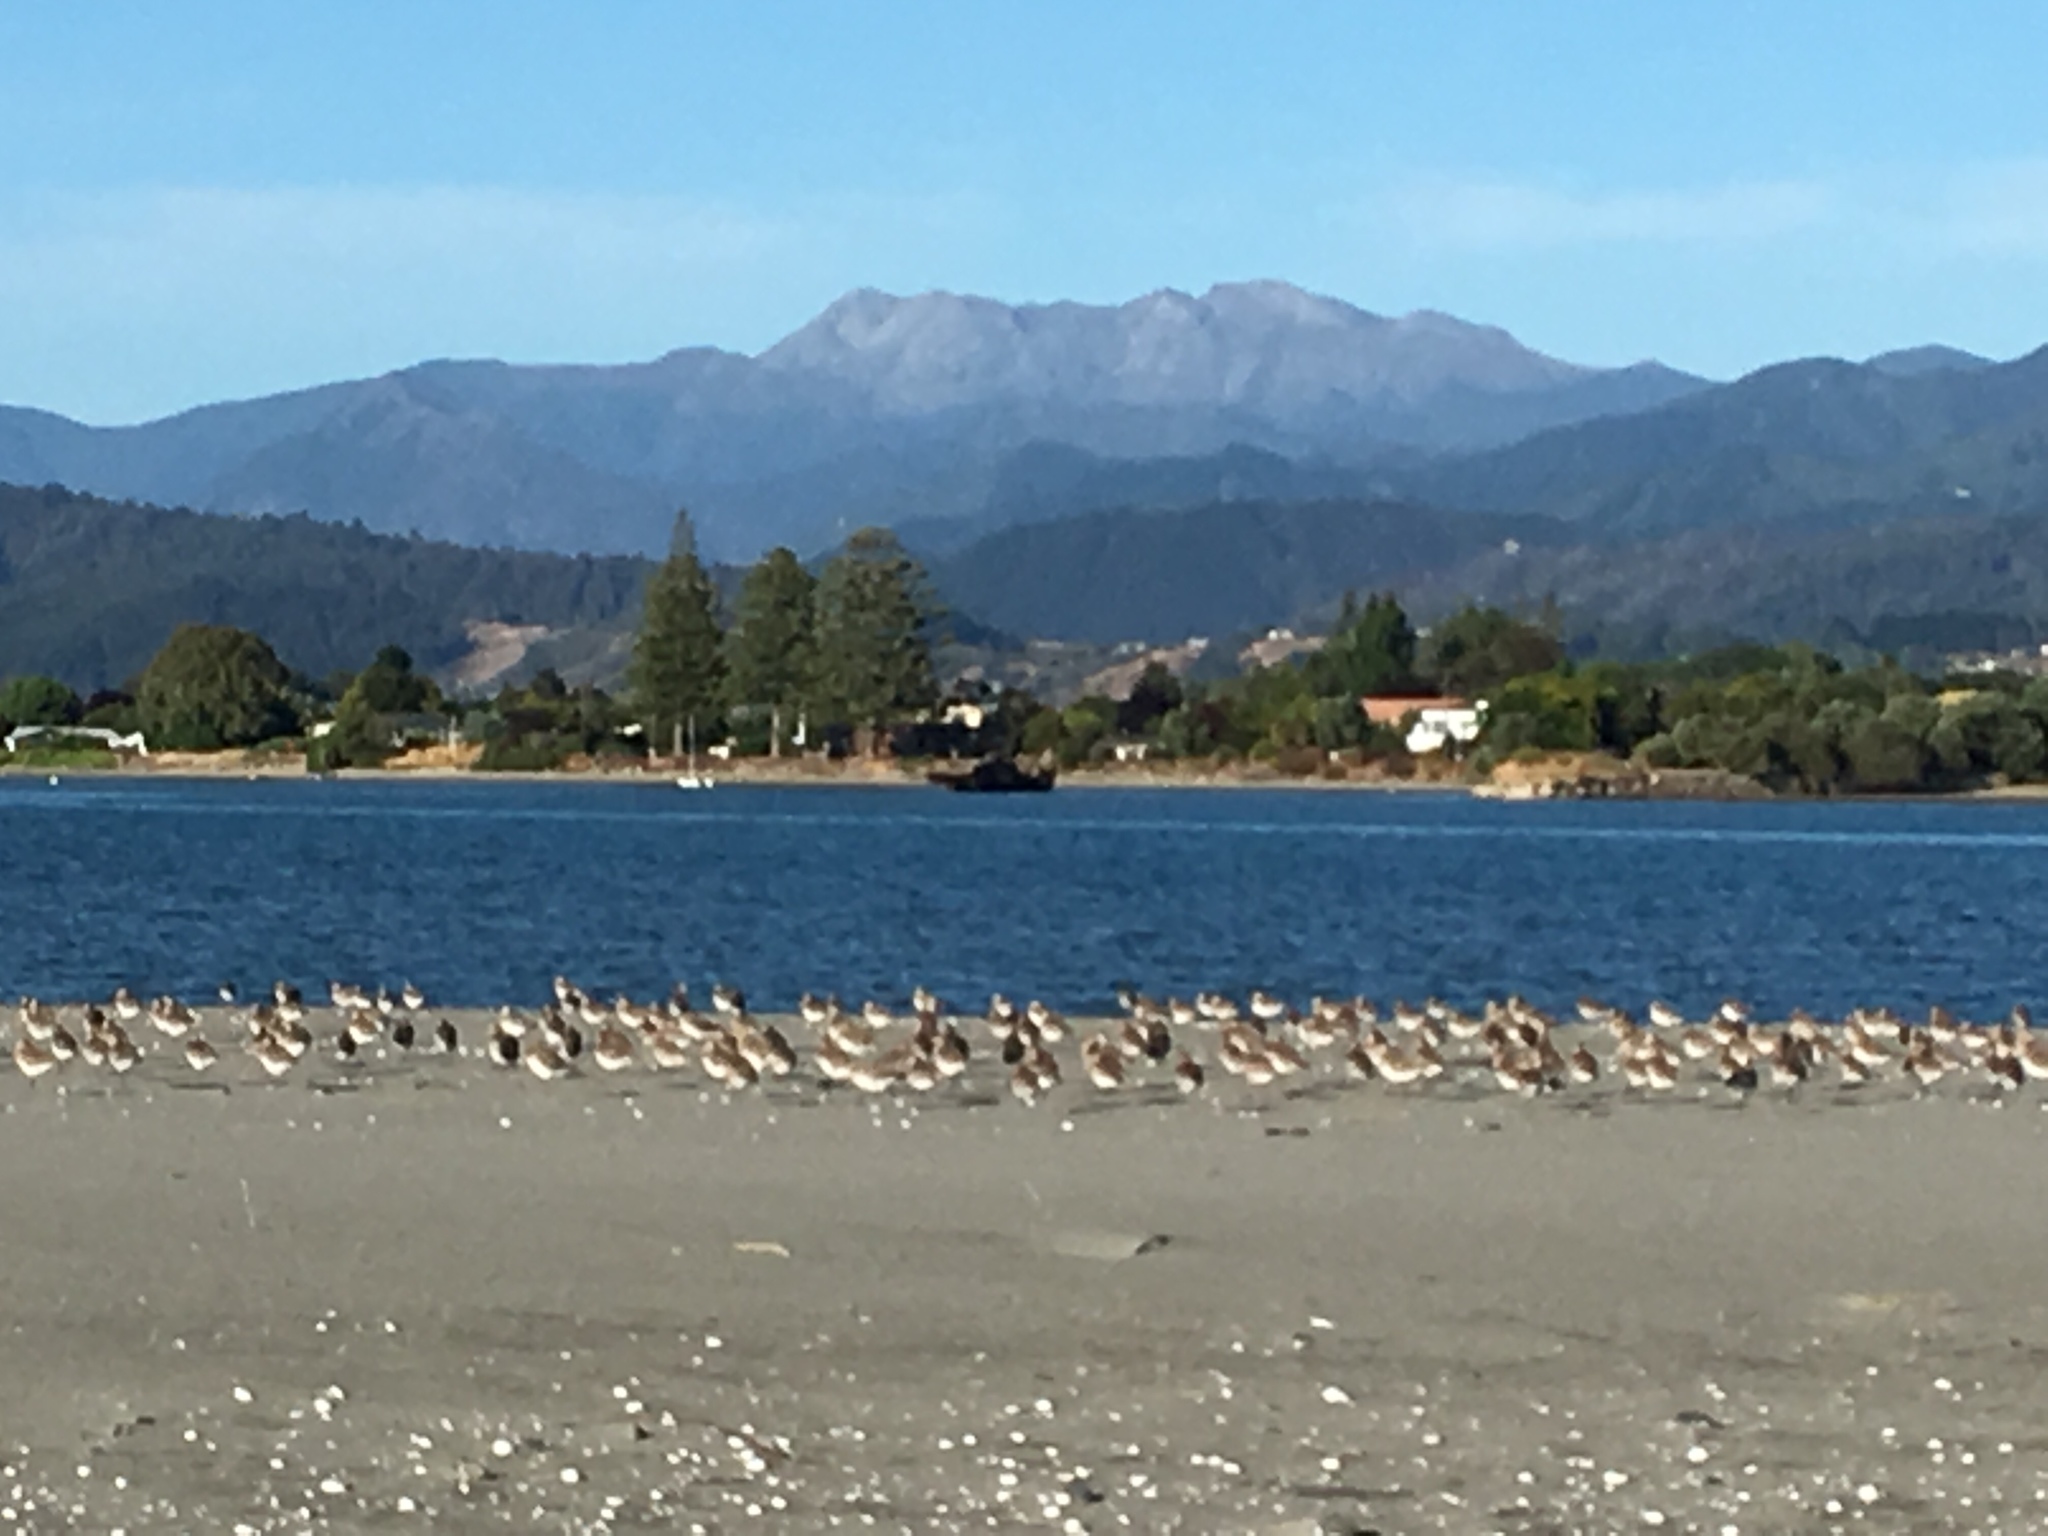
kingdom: Animalia
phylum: Chordata
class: Aves
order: Charadriiformes
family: Scolopacidae
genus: Limosa
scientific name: Limosa lapponica
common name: Bar-tailed godwit
